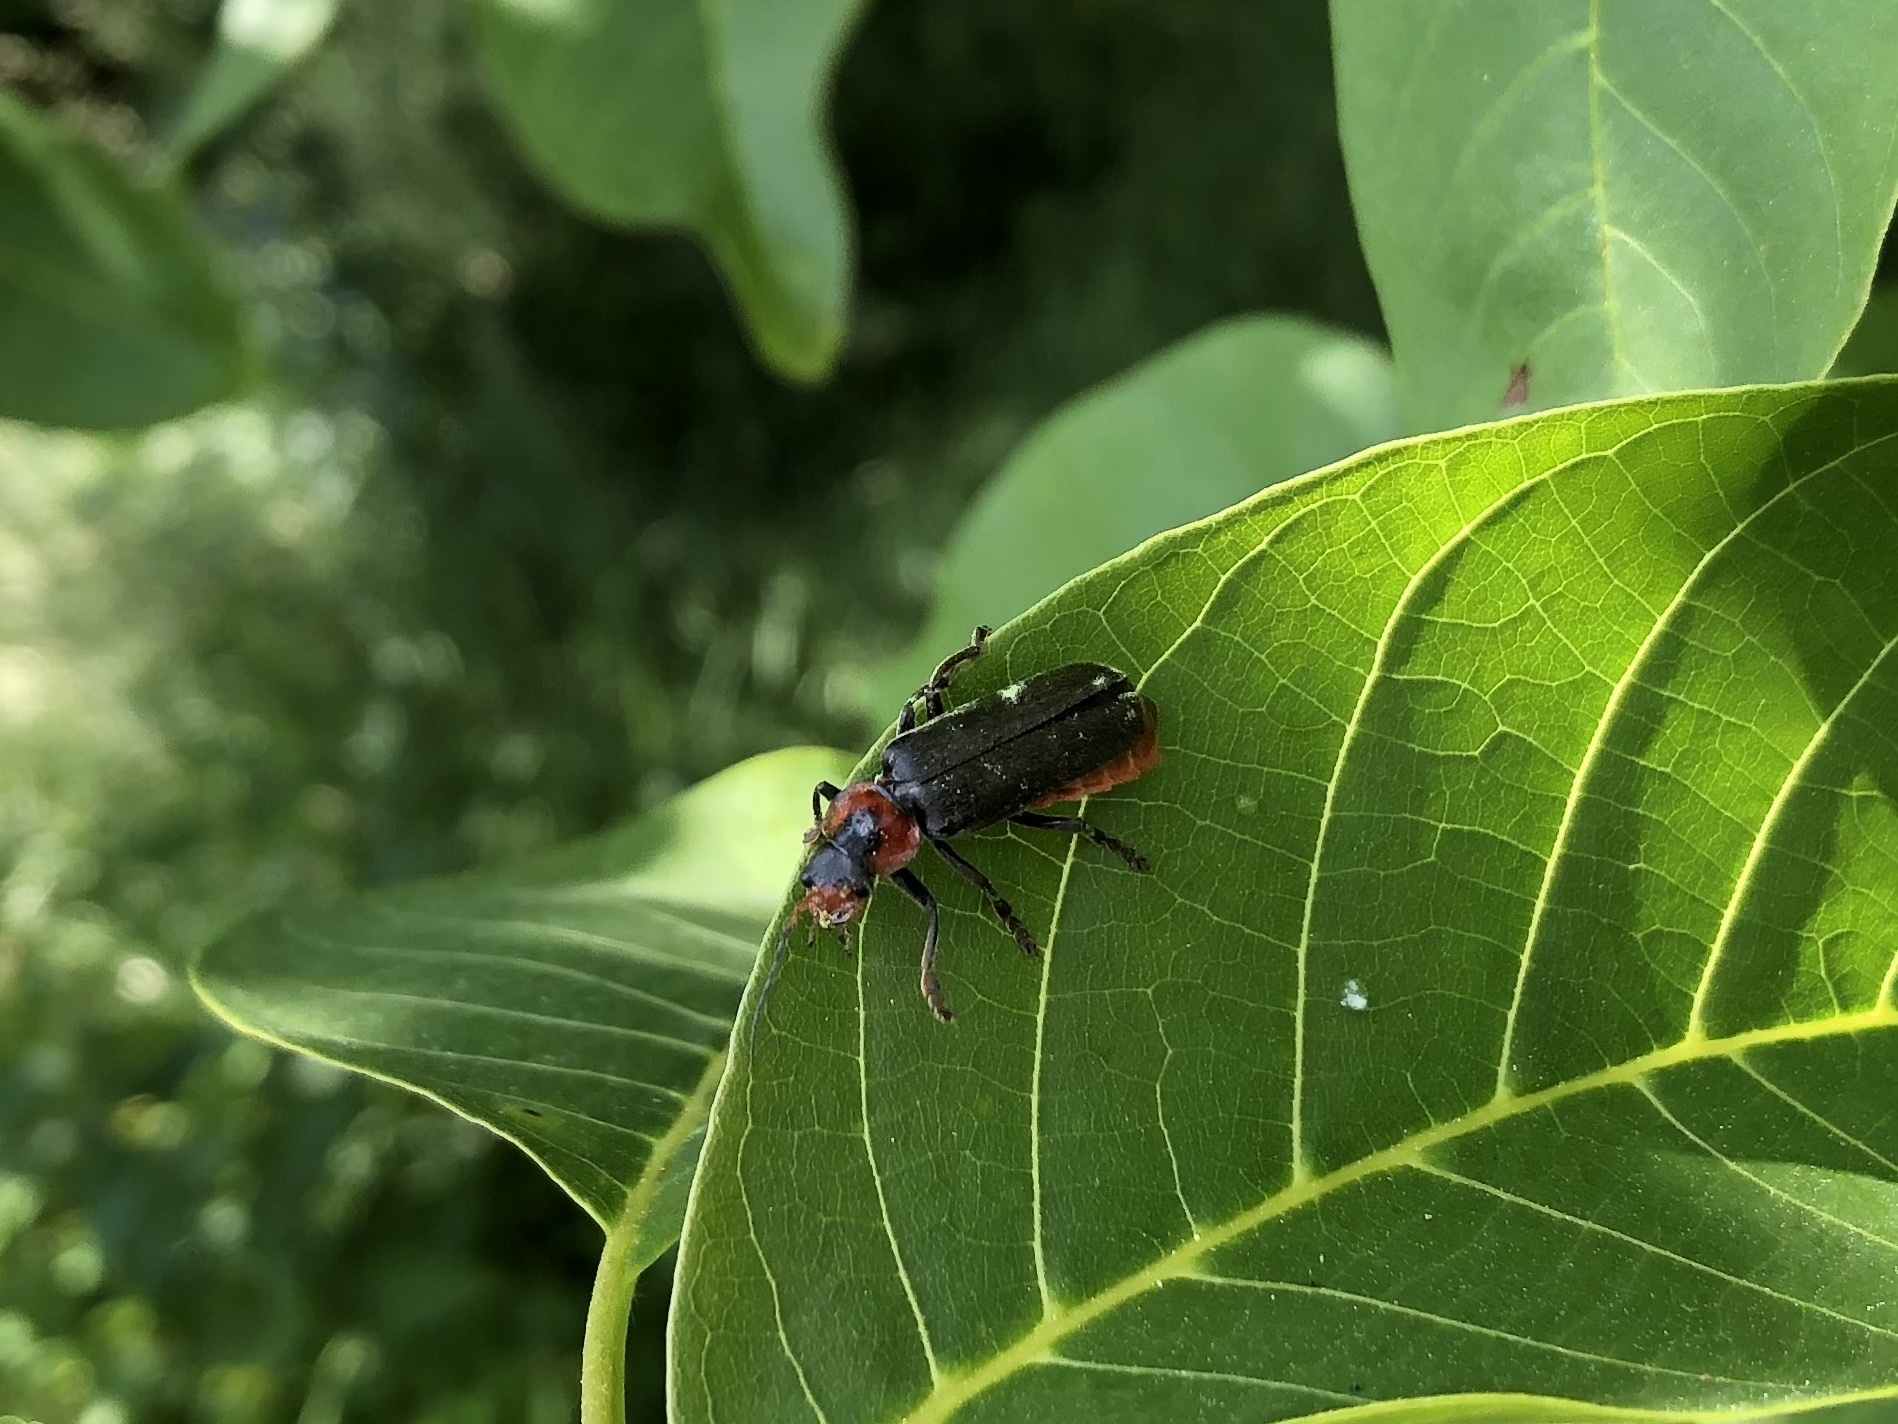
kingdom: Animalia
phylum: Arthropoda
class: Insecta
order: Coleoptera
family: Cantharidae
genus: Cantharis
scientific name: Cantharis fusca
